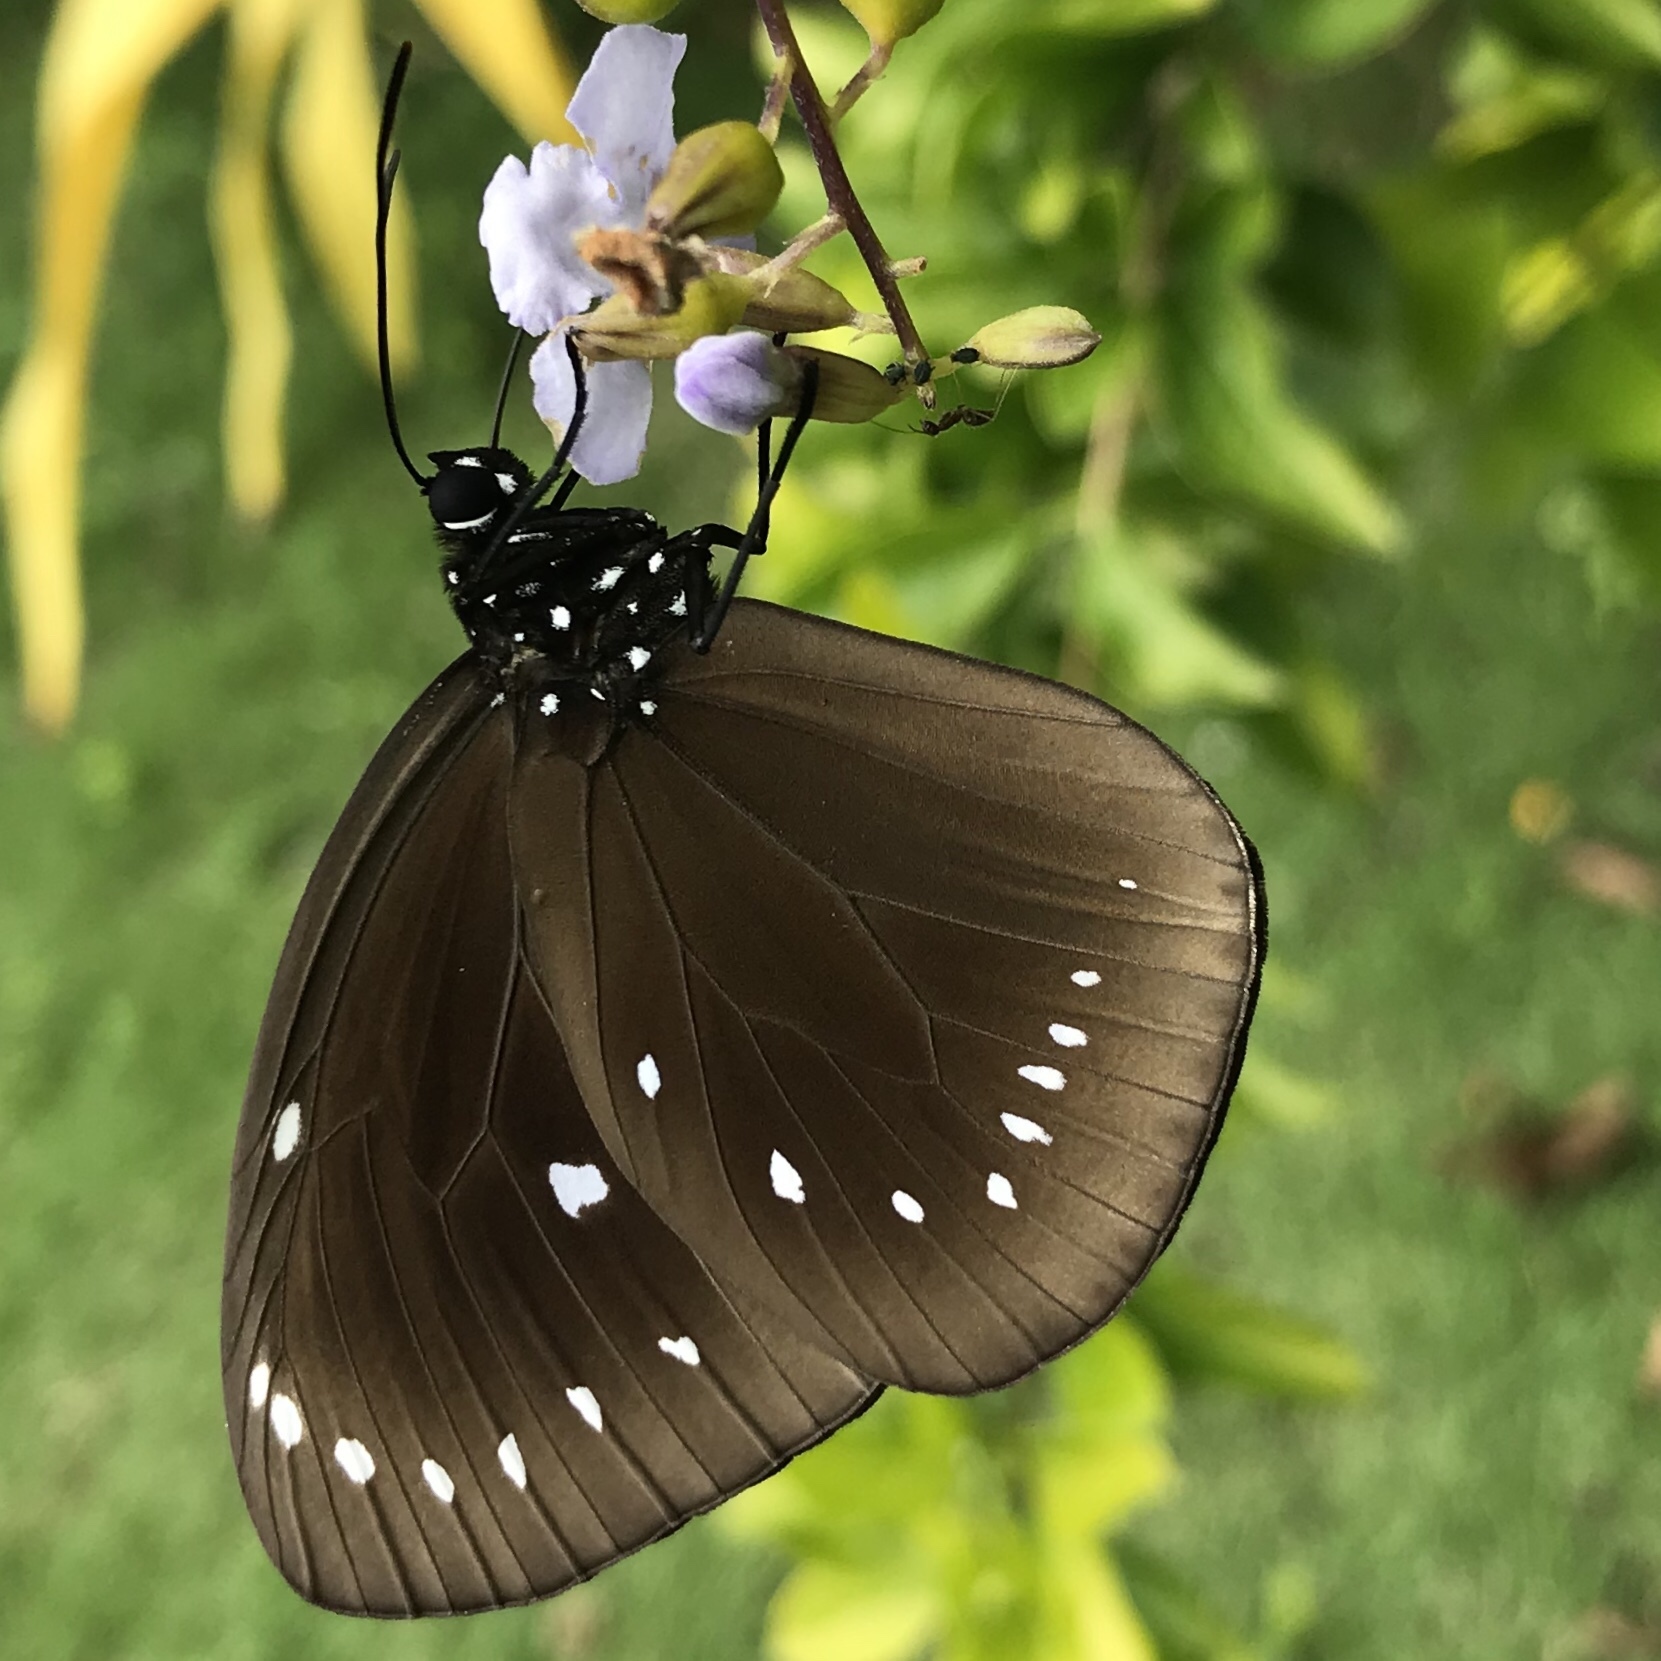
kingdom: Animalia
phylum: Arthropoda
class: Insecta
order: Lepidoptera
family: Nymphalidae
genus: Hypolimnas
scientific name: Hypolimnas bolina
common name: Great eggfly
